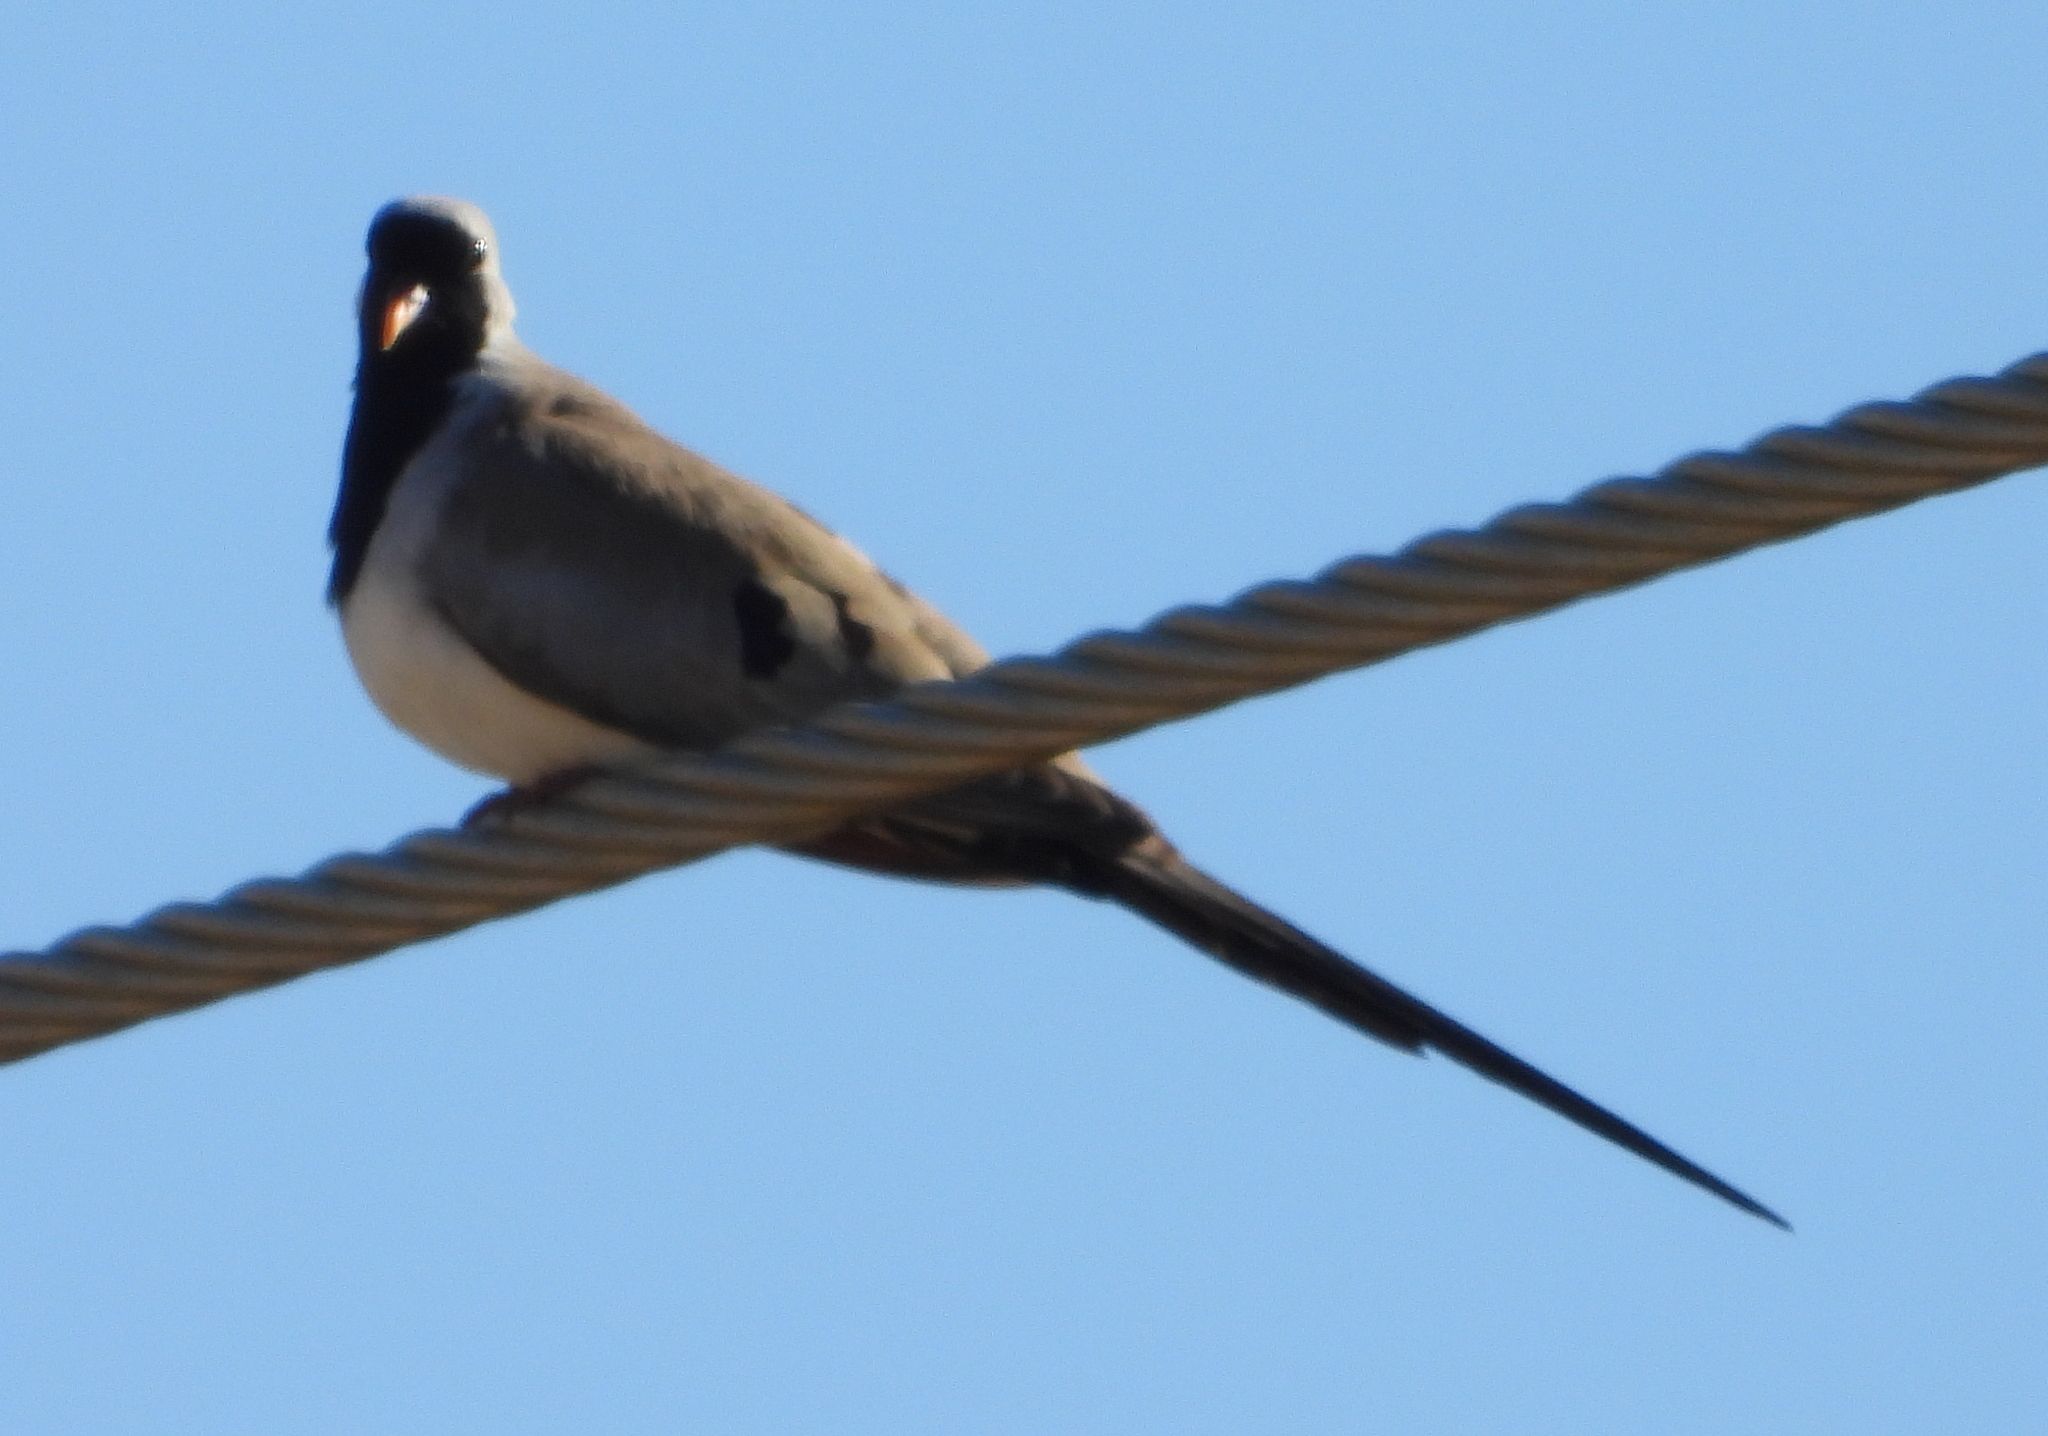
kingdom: Animalia
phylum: Chordata
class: Aves
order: Columbiformes
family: Columbidae
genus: Oena
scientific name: Oena capensis
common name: Namaqua dove
